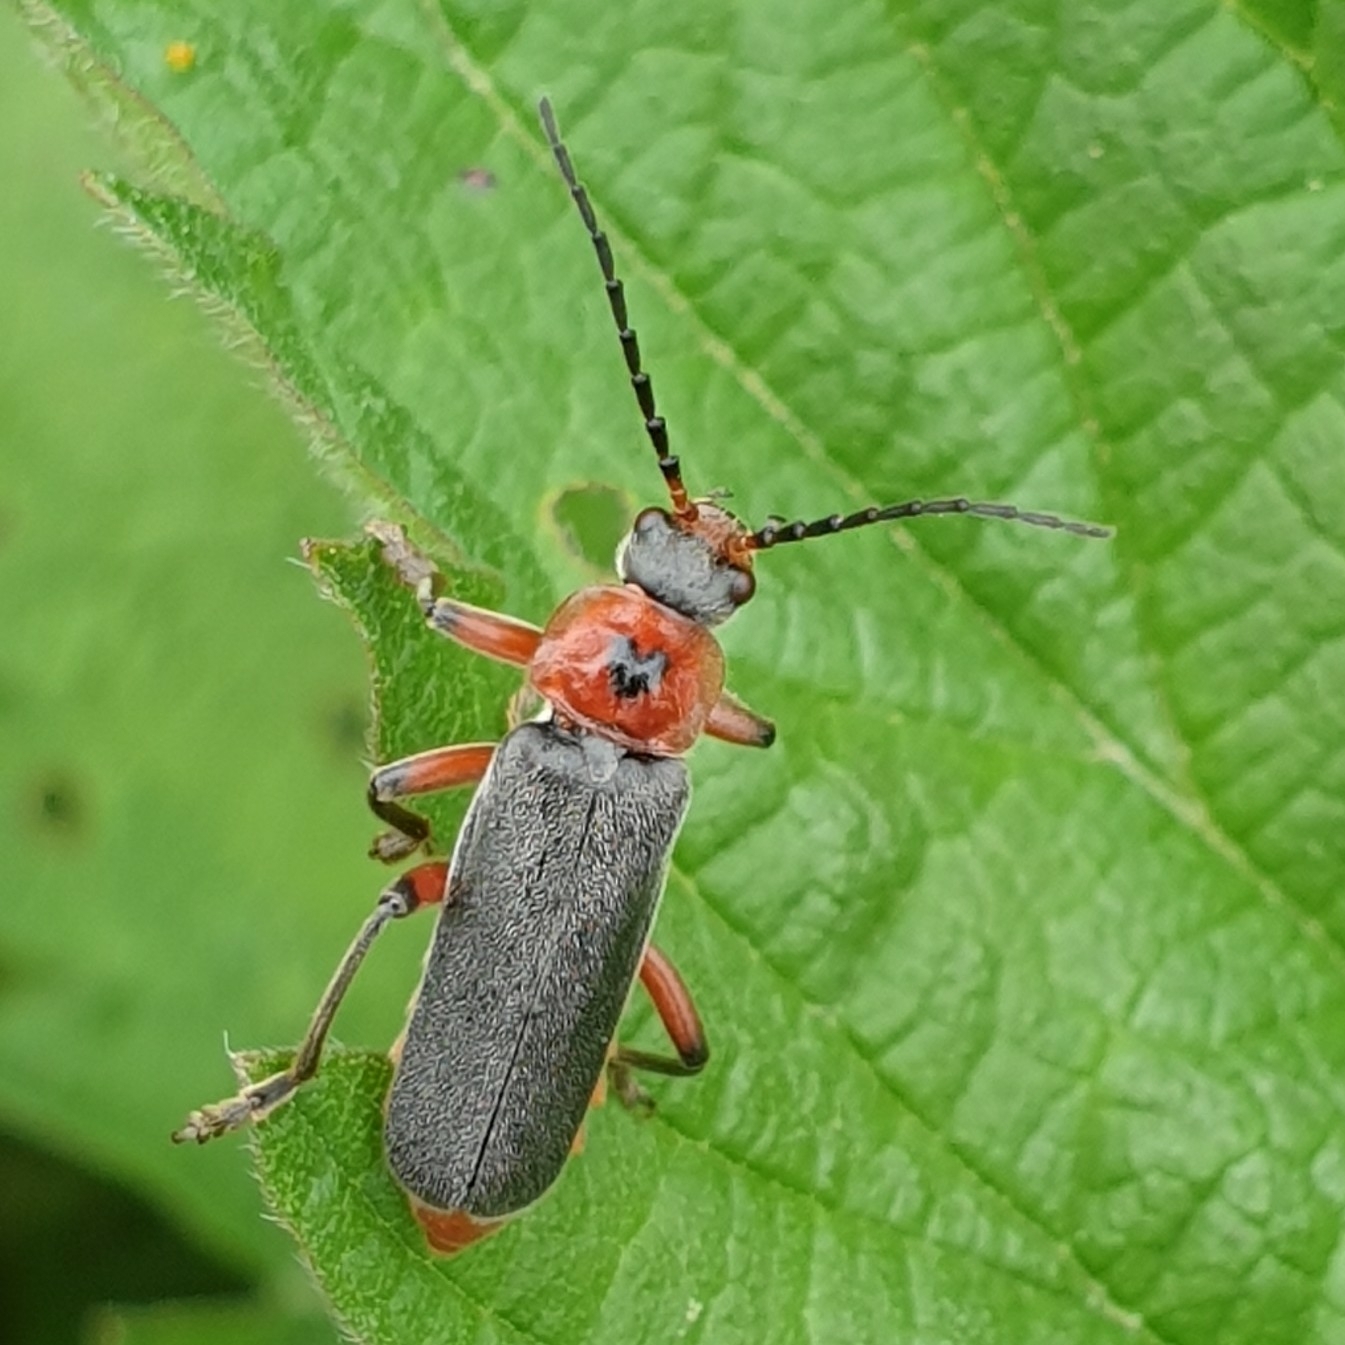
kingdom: Animalia
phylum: Arthropoda
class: Insecta
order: Coleoptera
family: Cantharidae
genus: Cantharis
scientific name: Cantharis rustica
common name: Soldier beetle
